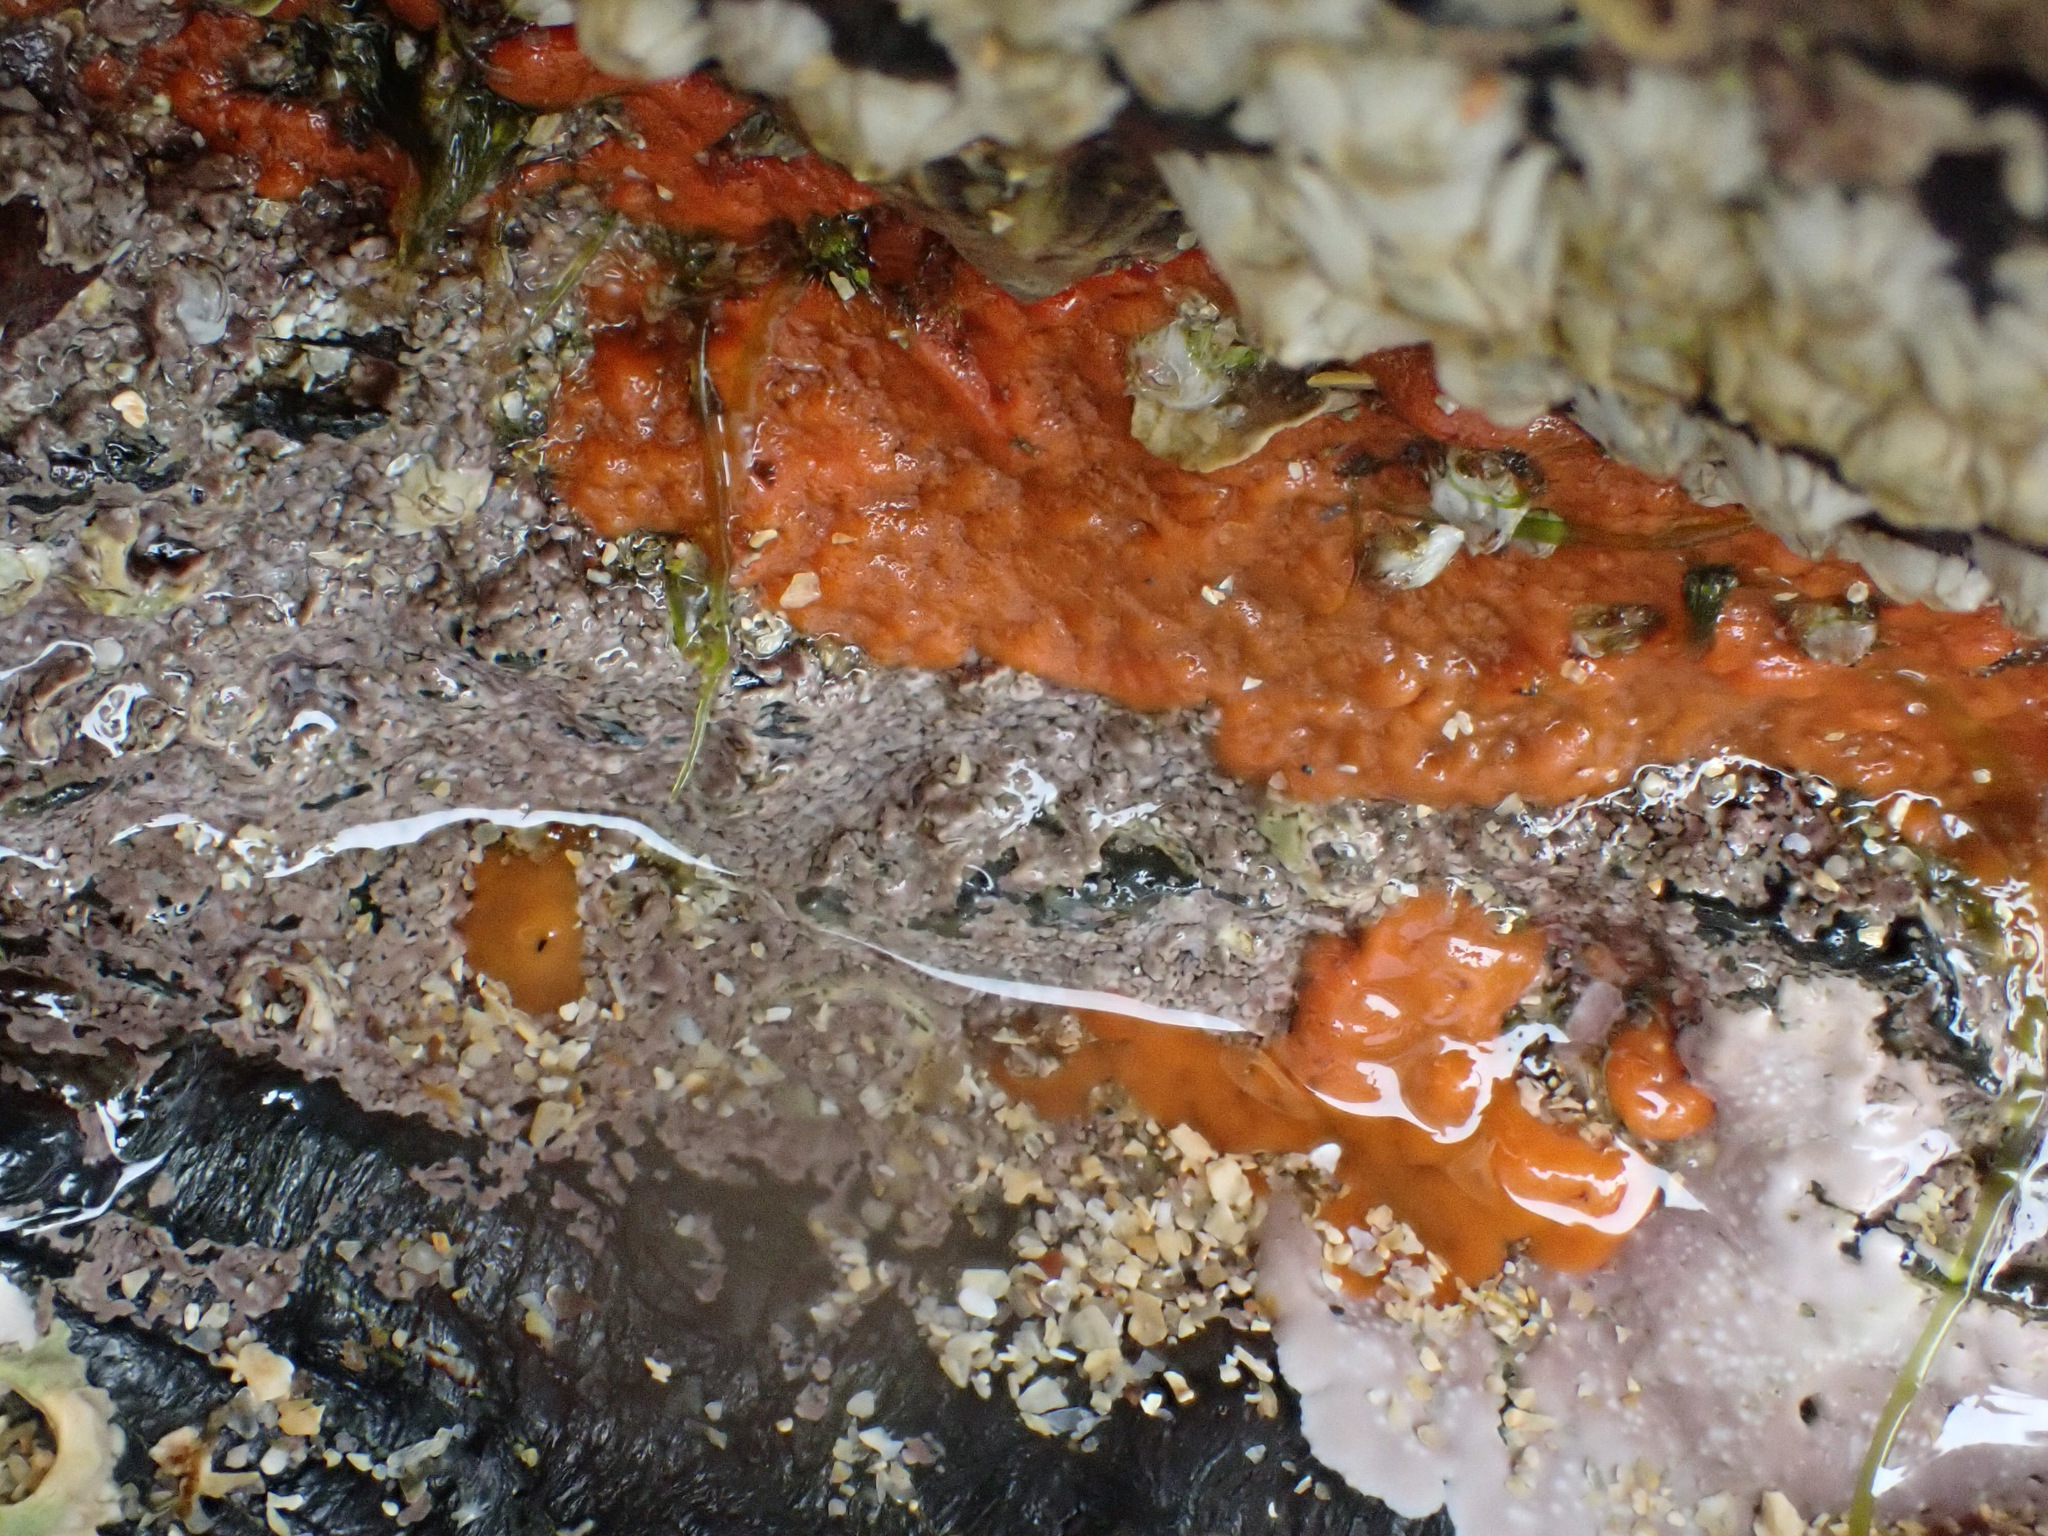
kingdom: Animalia
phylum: Porifera
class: Demospongiae
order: Suberitida
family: Halichondriidae
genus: Hymeniacidon
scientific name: Hymeniacidon perlevis
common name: Crumb-of-bread sponge
